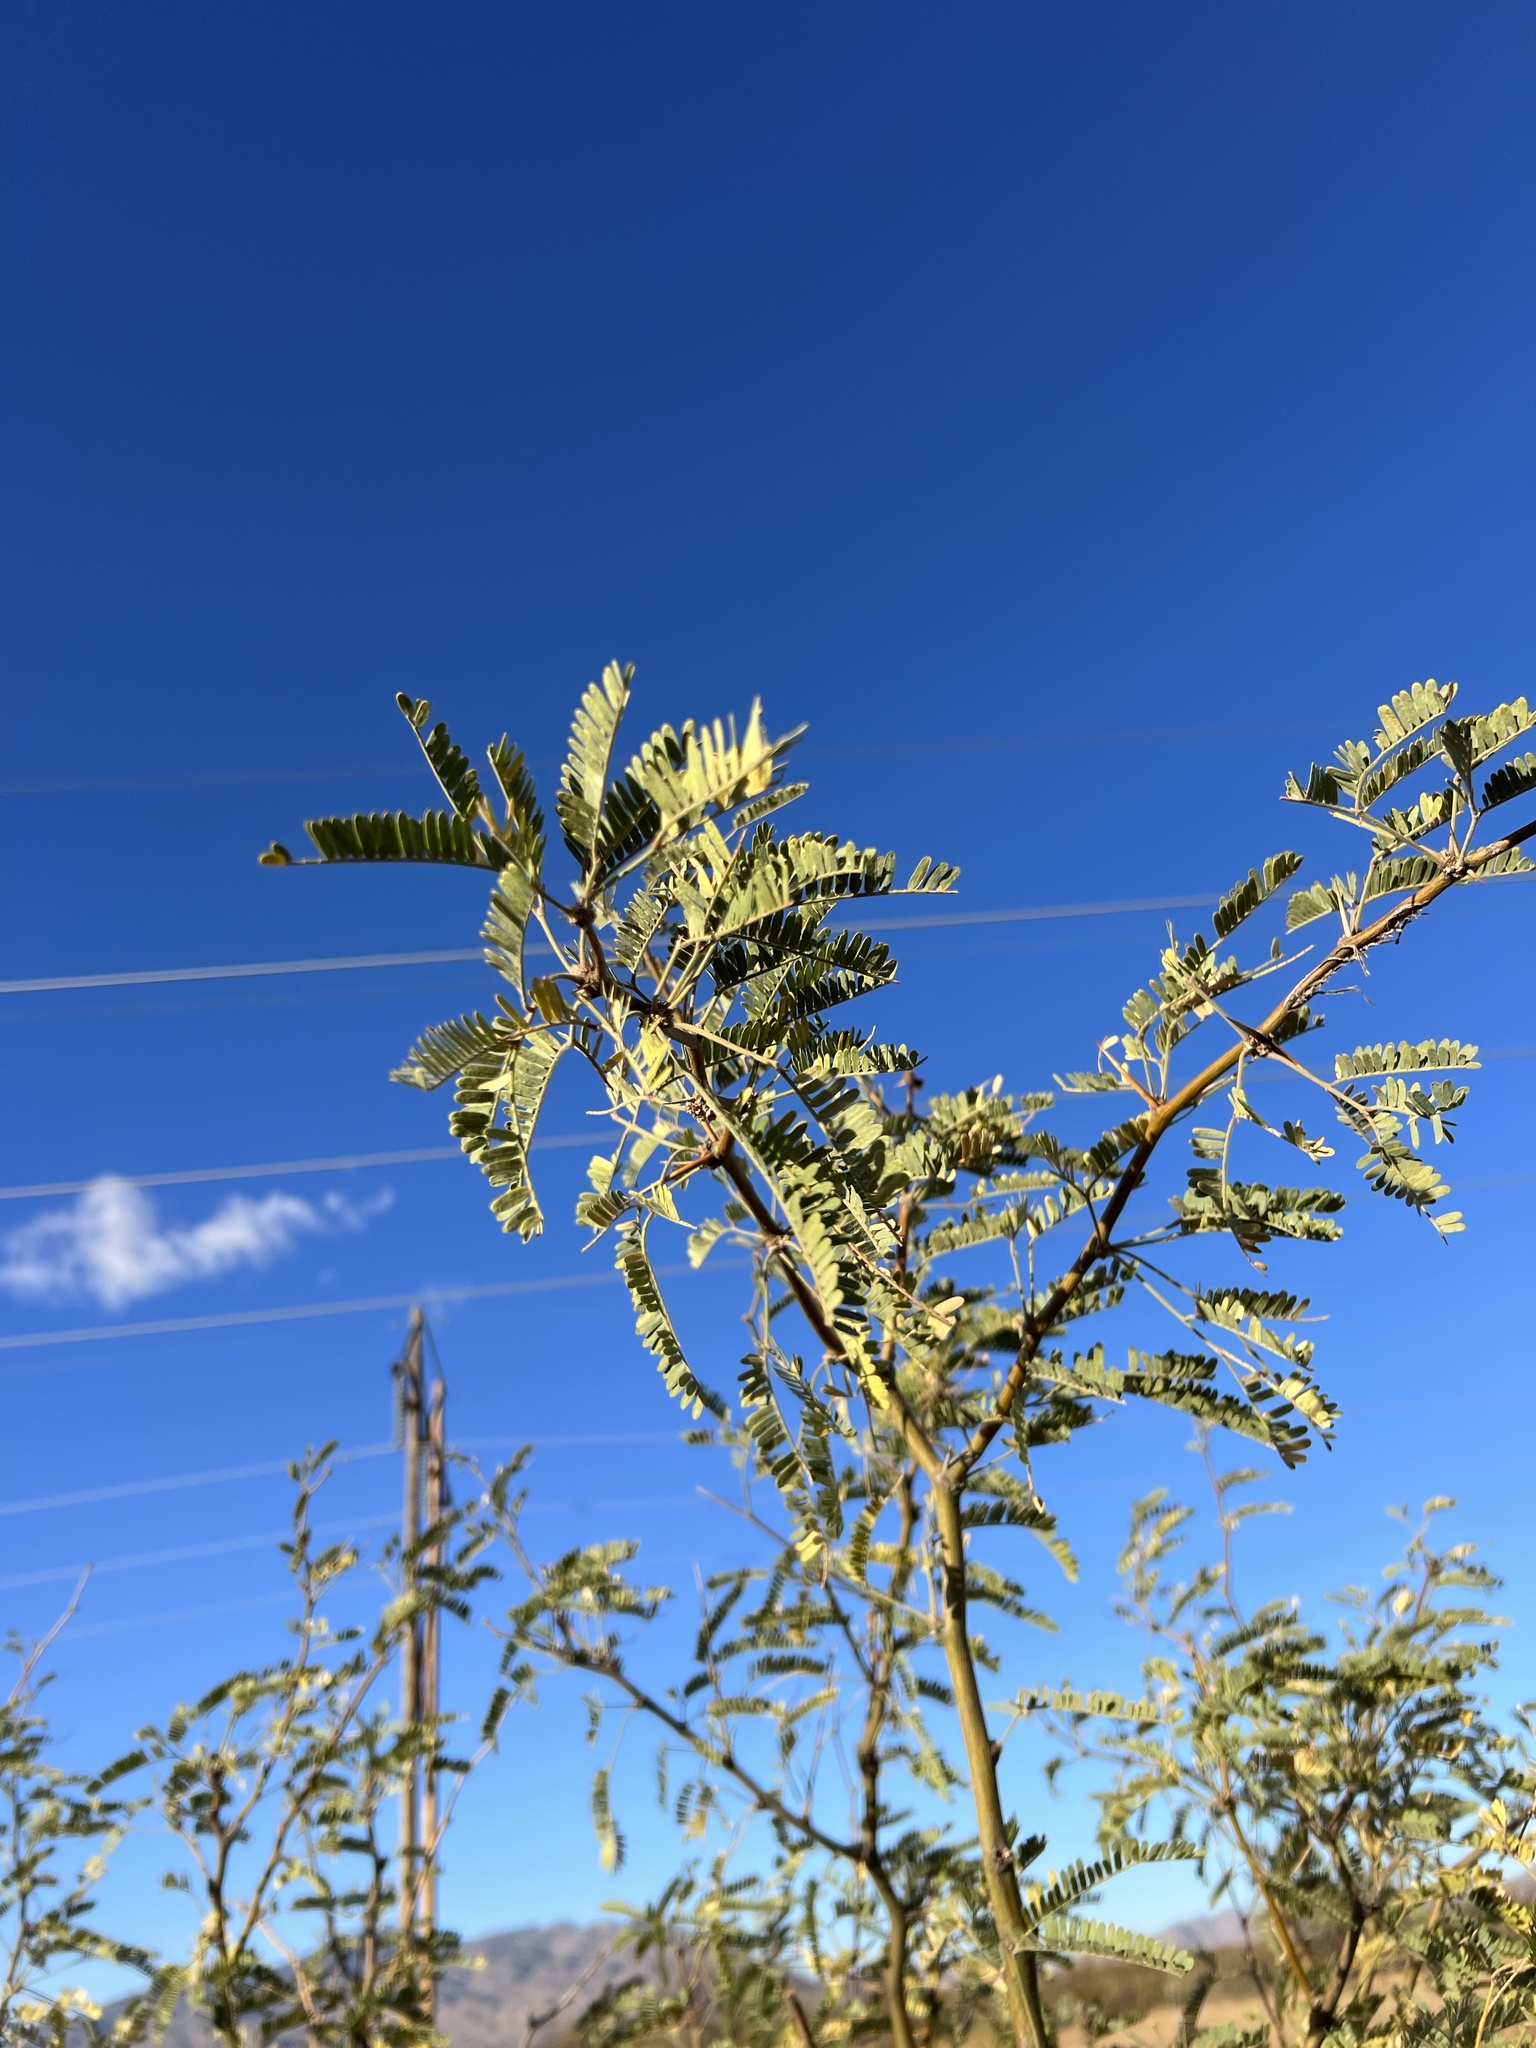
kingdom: Plantae
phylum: Tracheophyta
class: Magnoliopsida
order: Fabales
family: Fabaceae
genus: Prosopis
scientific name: Prosopis velutina
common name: Velvet mesquite
